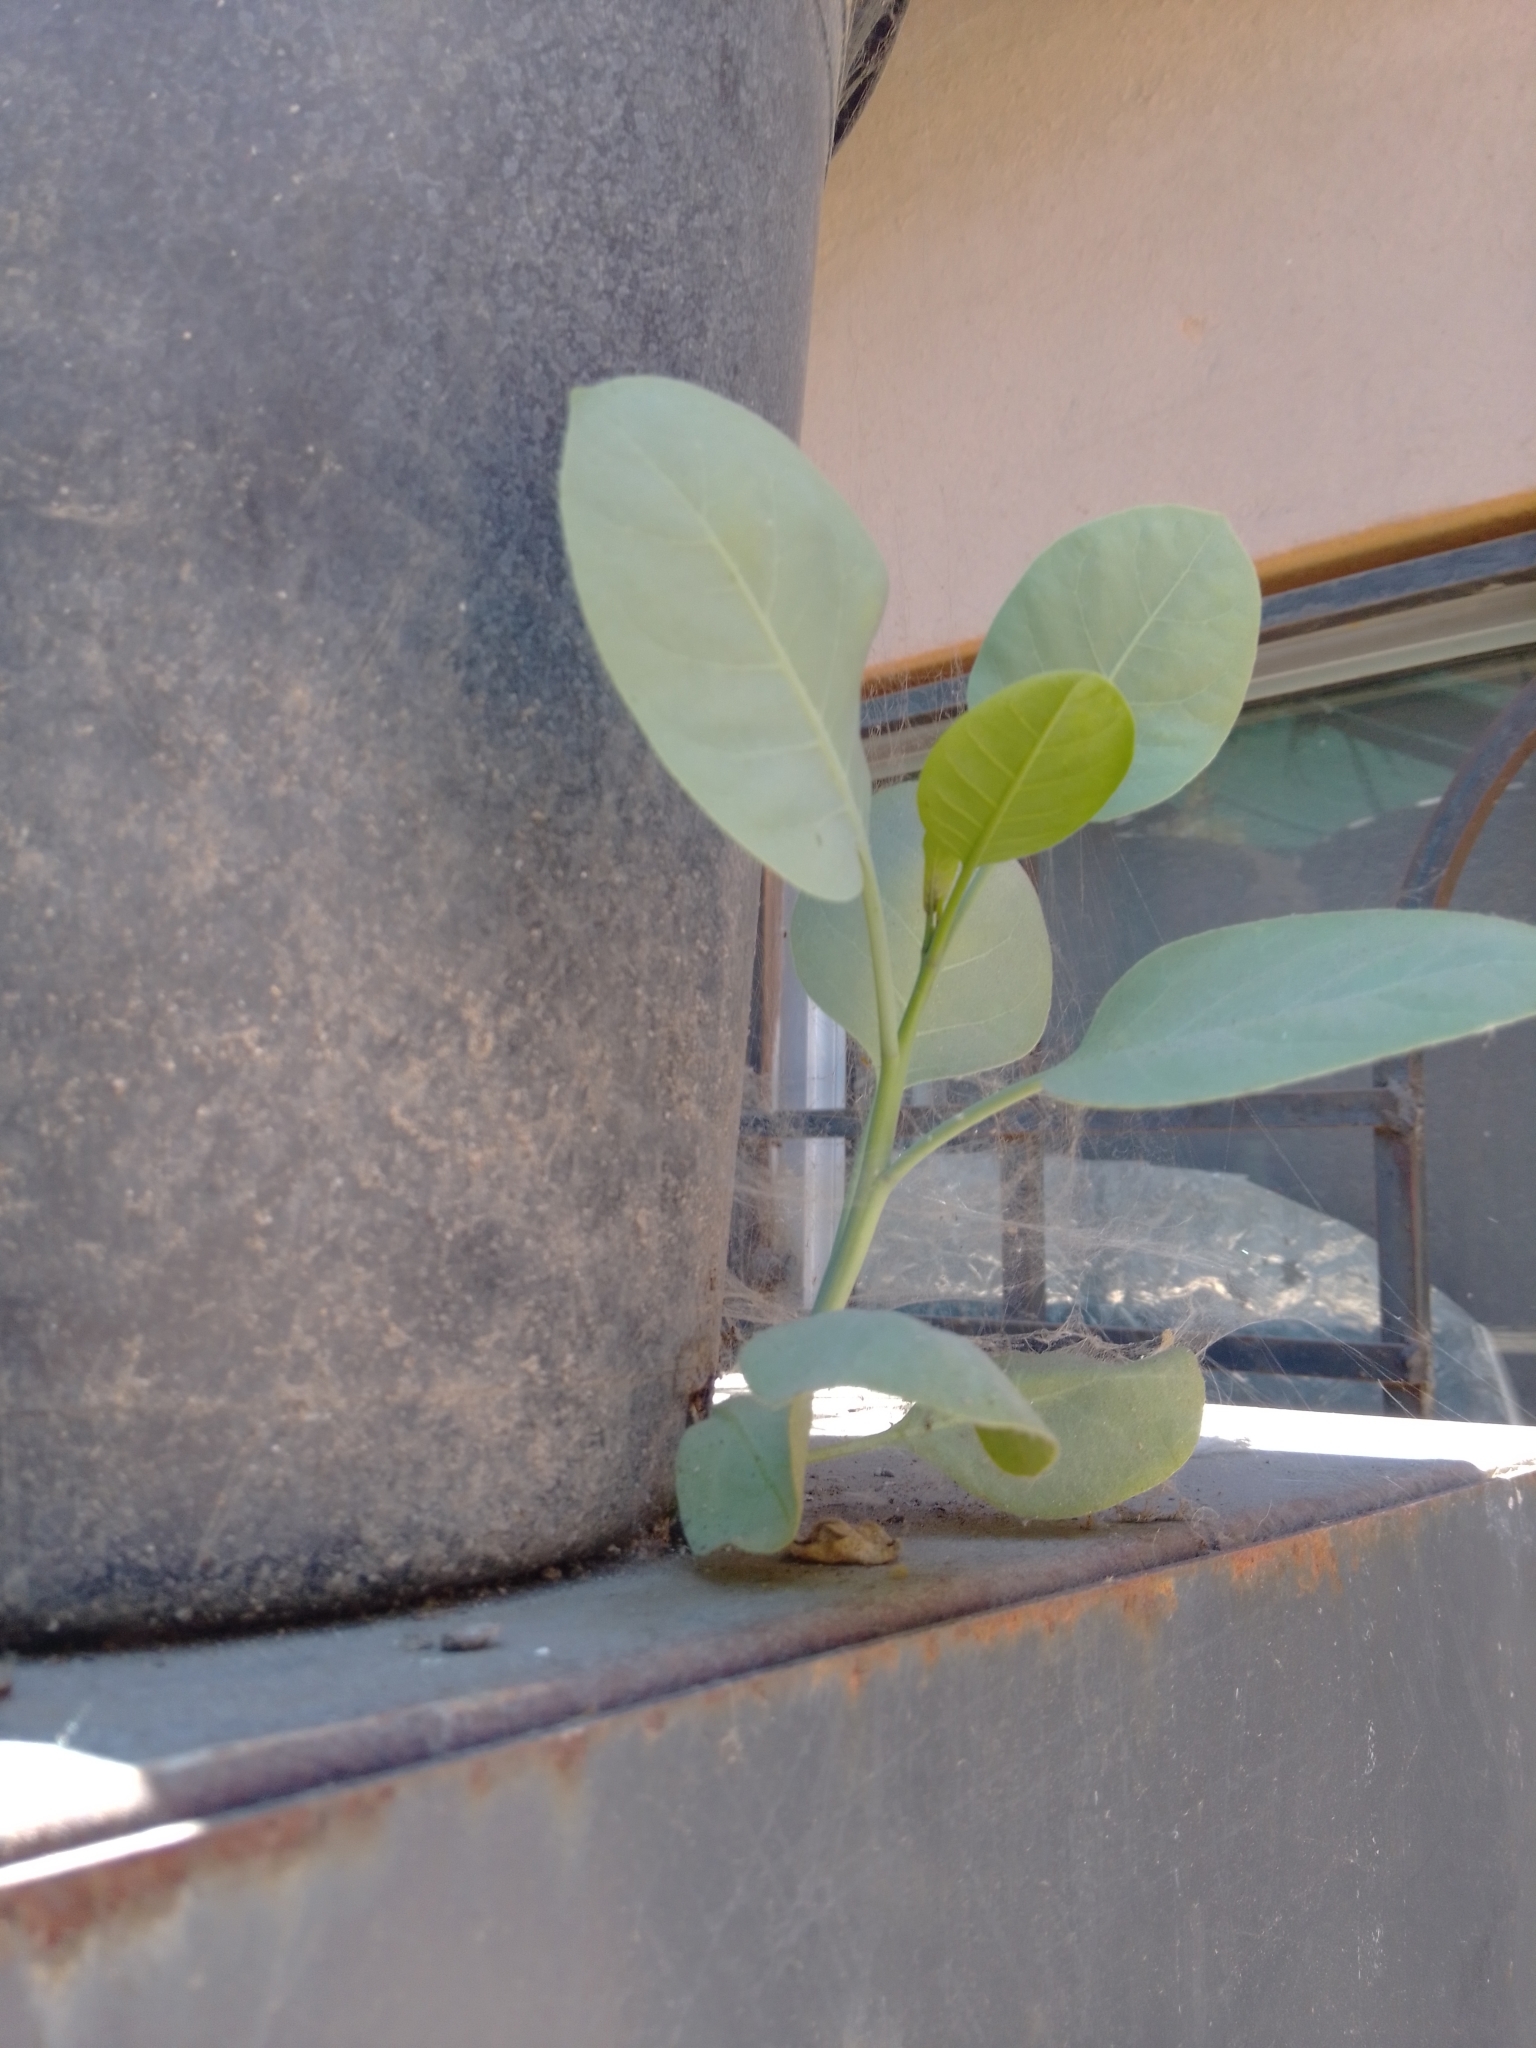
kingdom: Plantae
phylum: Tracheophyta
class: Magnoliopsida
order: Solanales
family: Solanaceae
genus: Nicotiana
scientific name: Nicotiana glauca
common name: Tree tobacco
